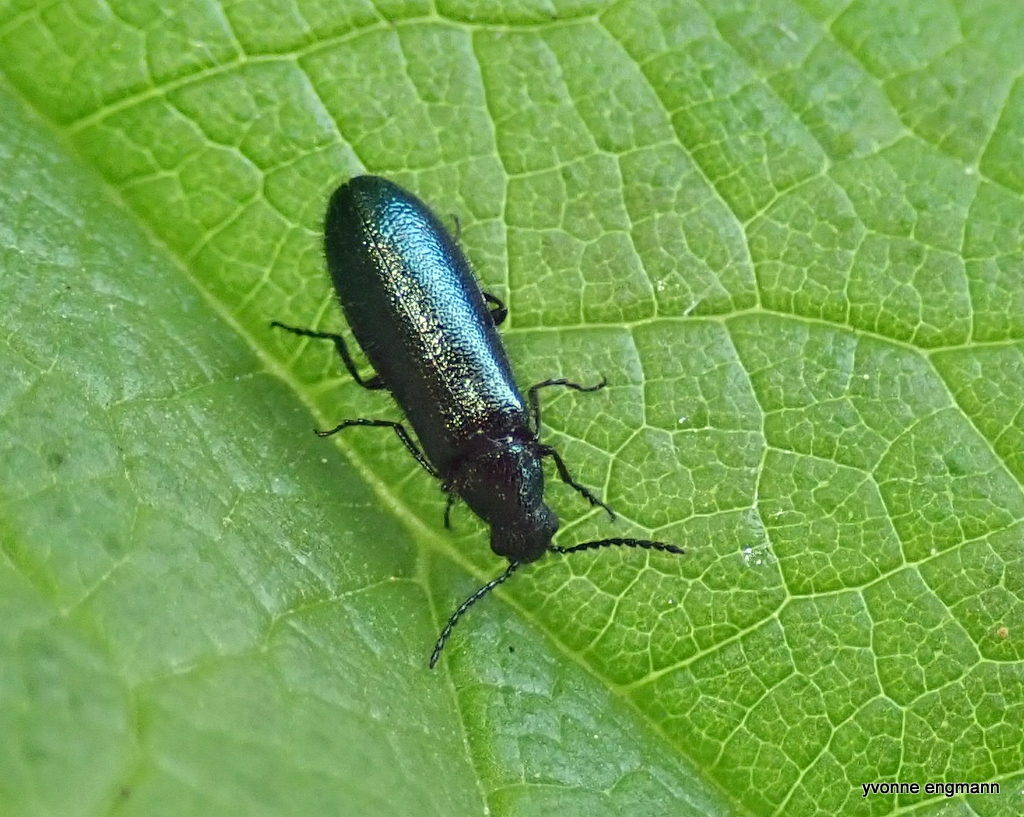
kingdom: Animalia
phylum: Arthropoda
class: Insecta
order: Coleoptera
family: Melyridae
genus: Dasytes
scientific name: Dasytes caeruleus
